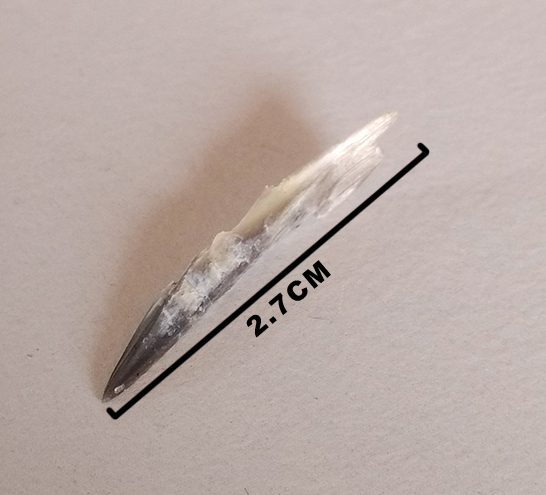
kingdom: Animalia
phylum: Chordata
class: Aves
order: Piciformes
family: Picidae
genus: Dendrocopos
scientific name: Dendrocopos major
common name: Great spotted woodpecker
